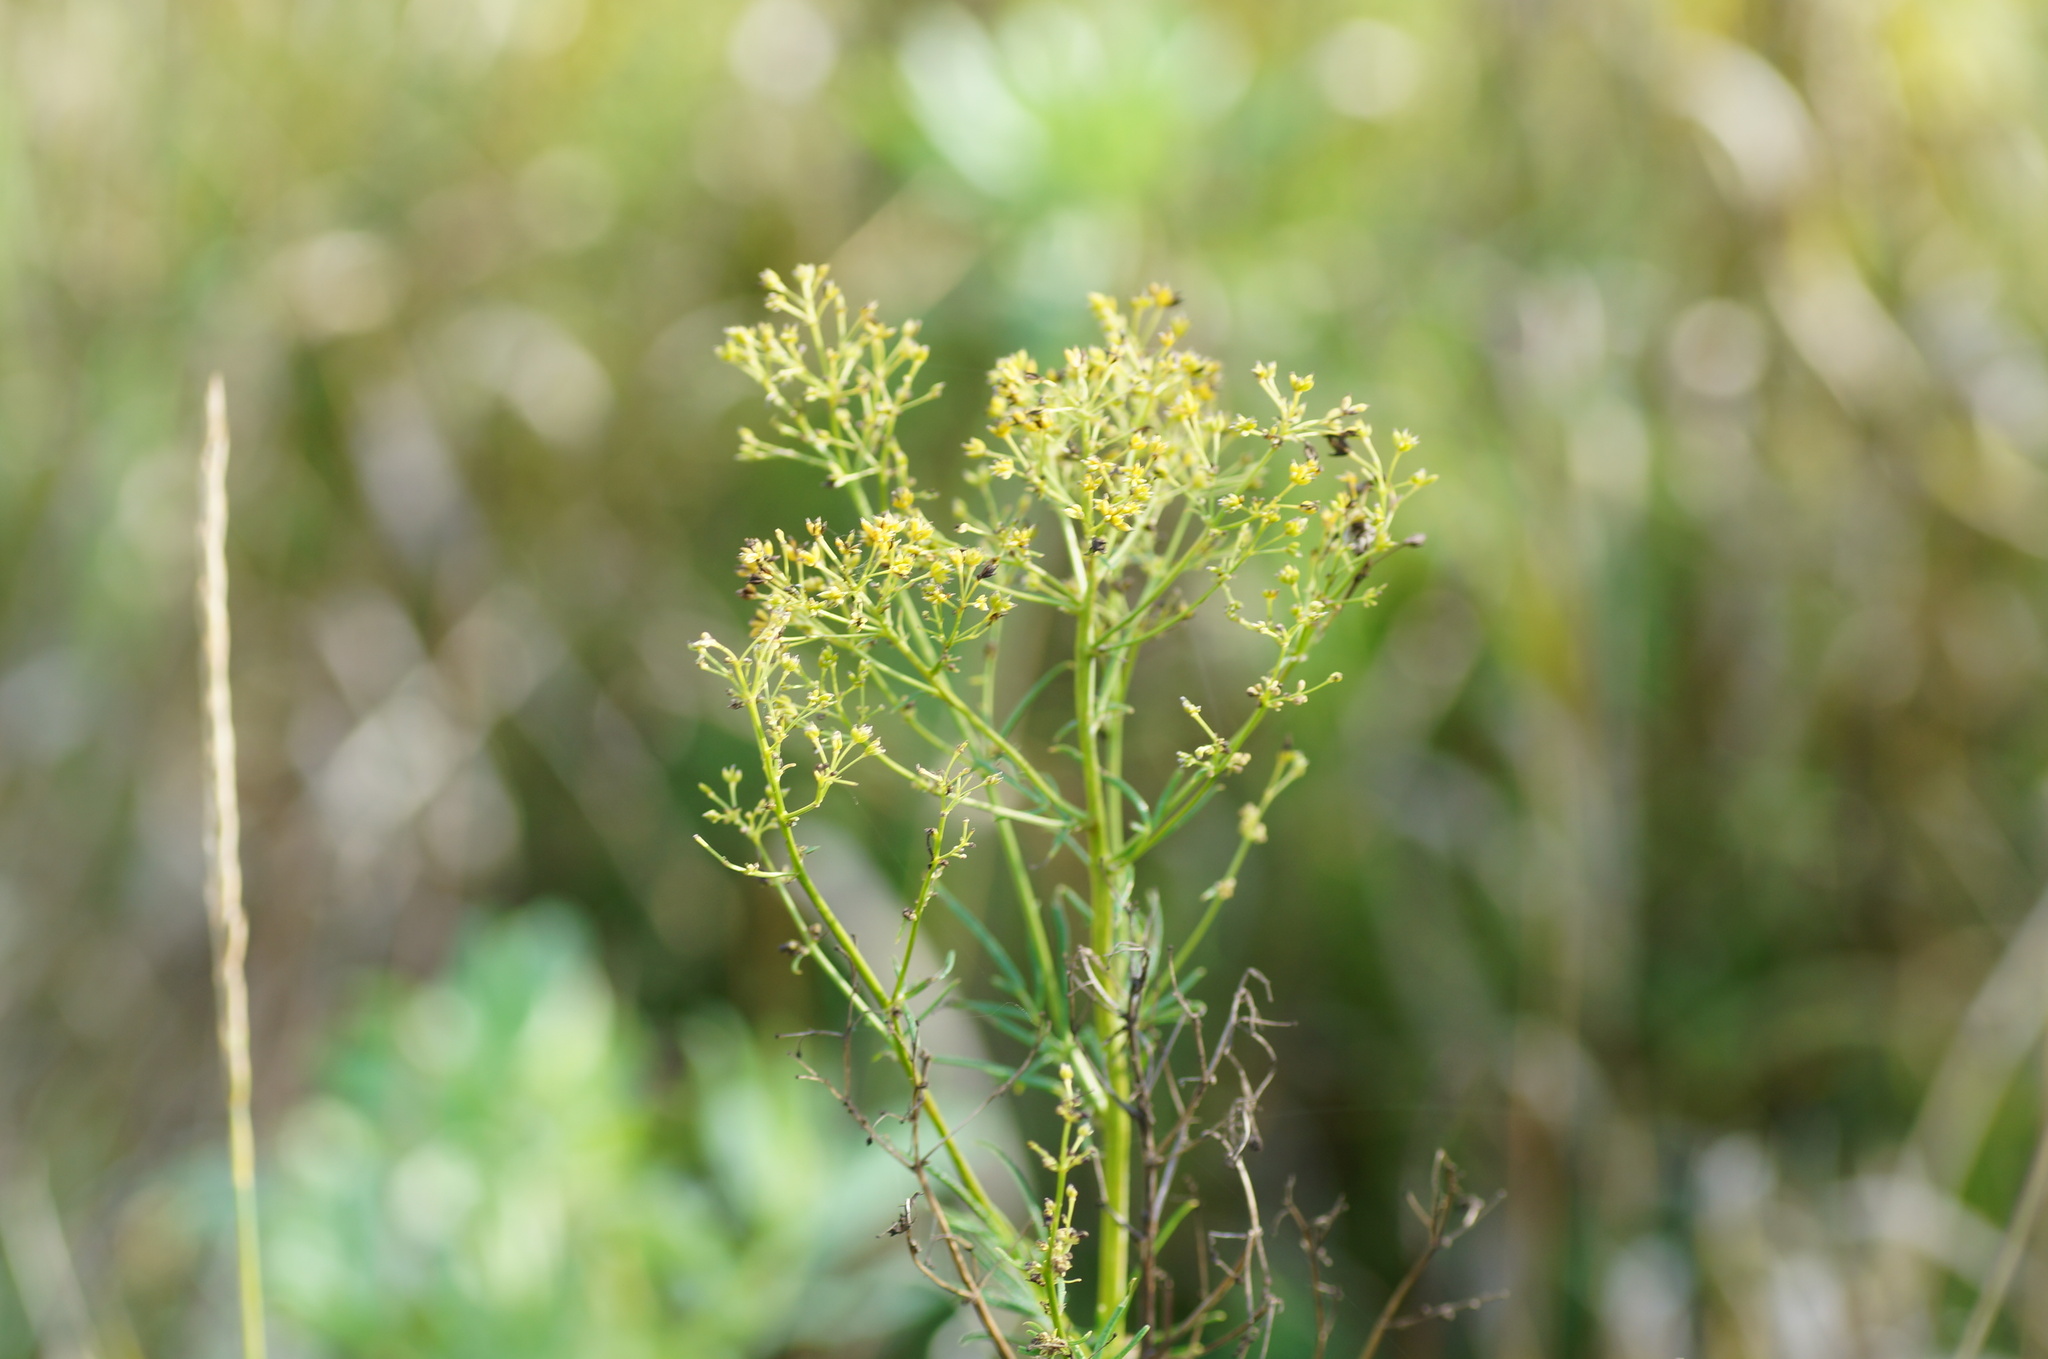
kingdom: Plantae
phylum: Tracheophyta
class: Magnoliopsida
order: Ranunculales
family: Ranunculaceae
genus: Thalictrum
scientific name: Thalictrum lucidum
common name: Shining meadow-rue
